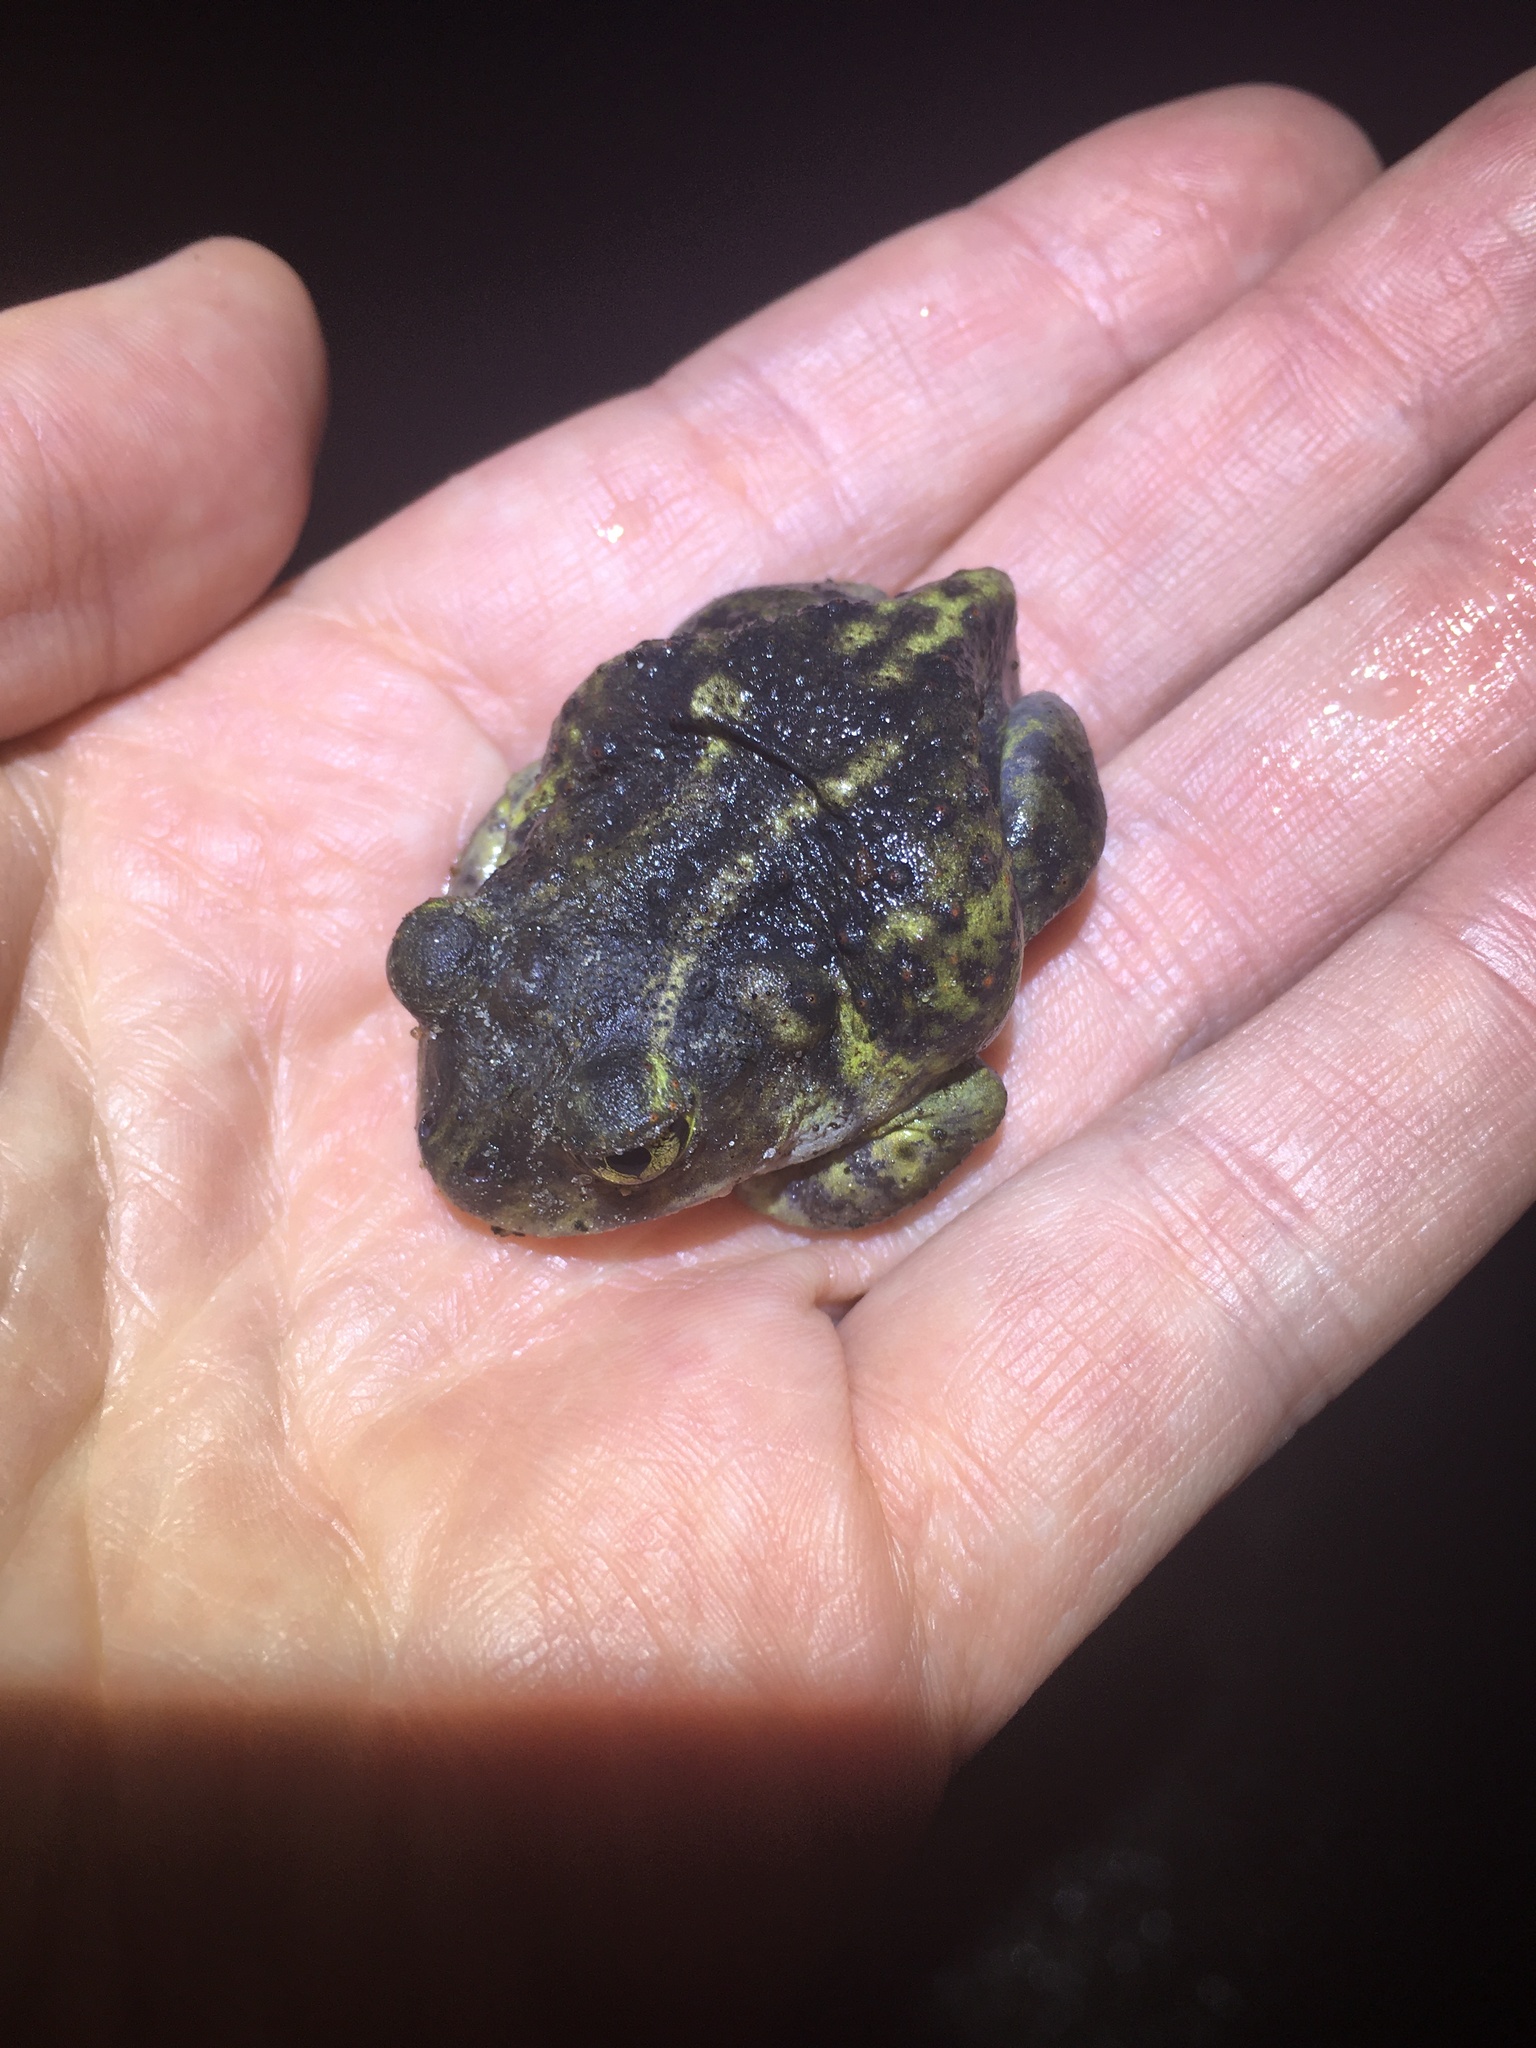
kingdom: Animalia
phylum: Chordata
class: Amphibia
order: Anura
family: Scaphiopodidae
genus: Scaphiopus
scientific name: Scaphiopus holbrookii
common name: Eastern spadefoot toad
